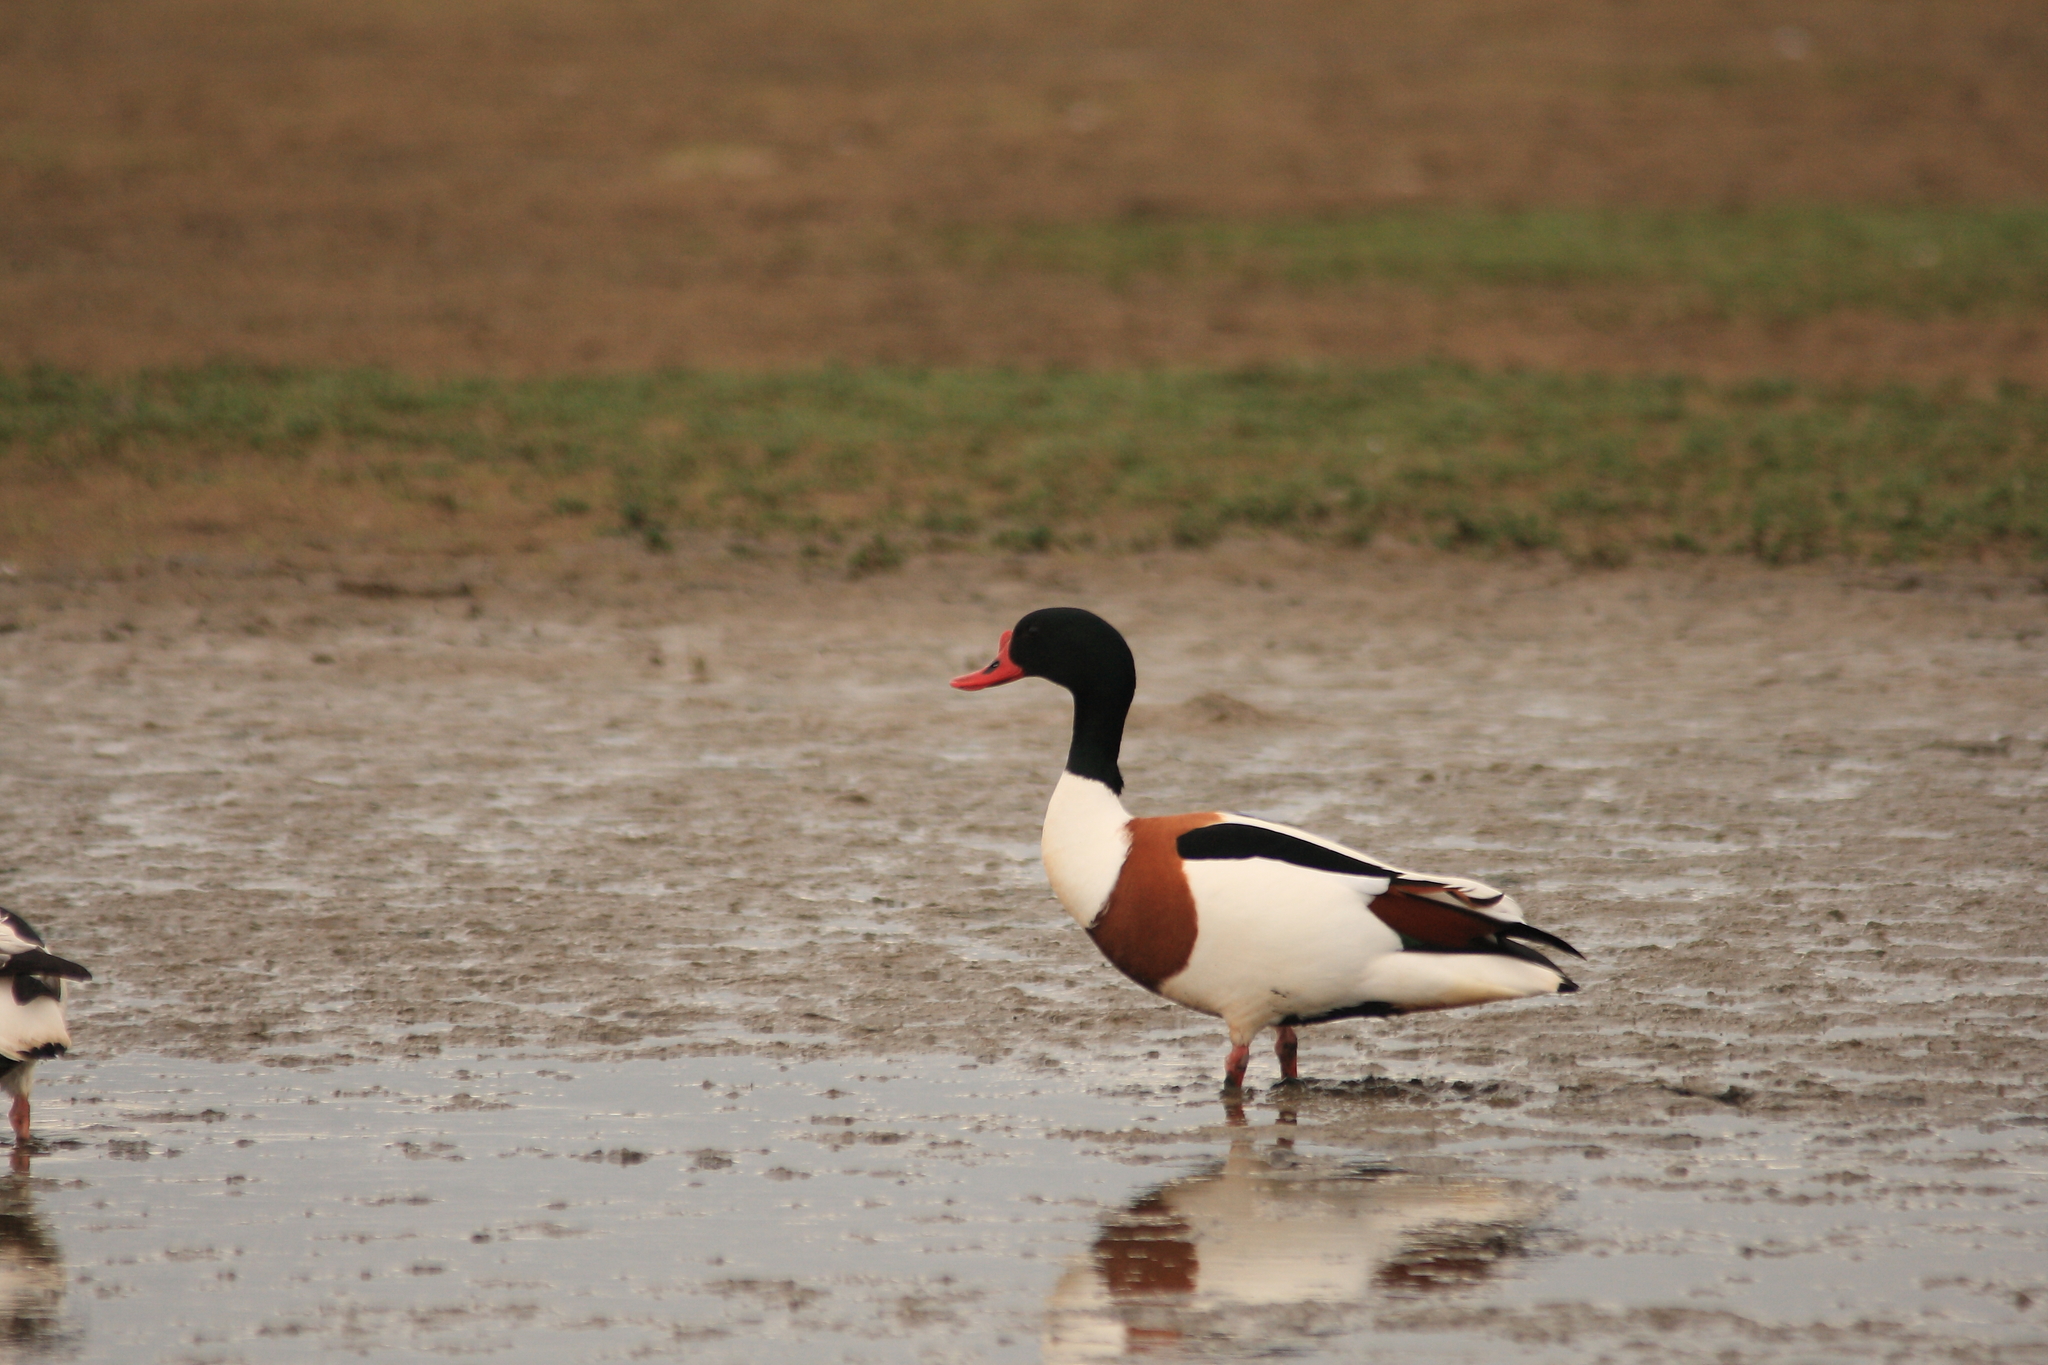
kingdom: Animalia
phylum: Chordata
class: Aves
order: Anseriformes
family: Anatidae
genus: Tadorna
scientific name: Tadorna tadorna
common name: Common shelduck
